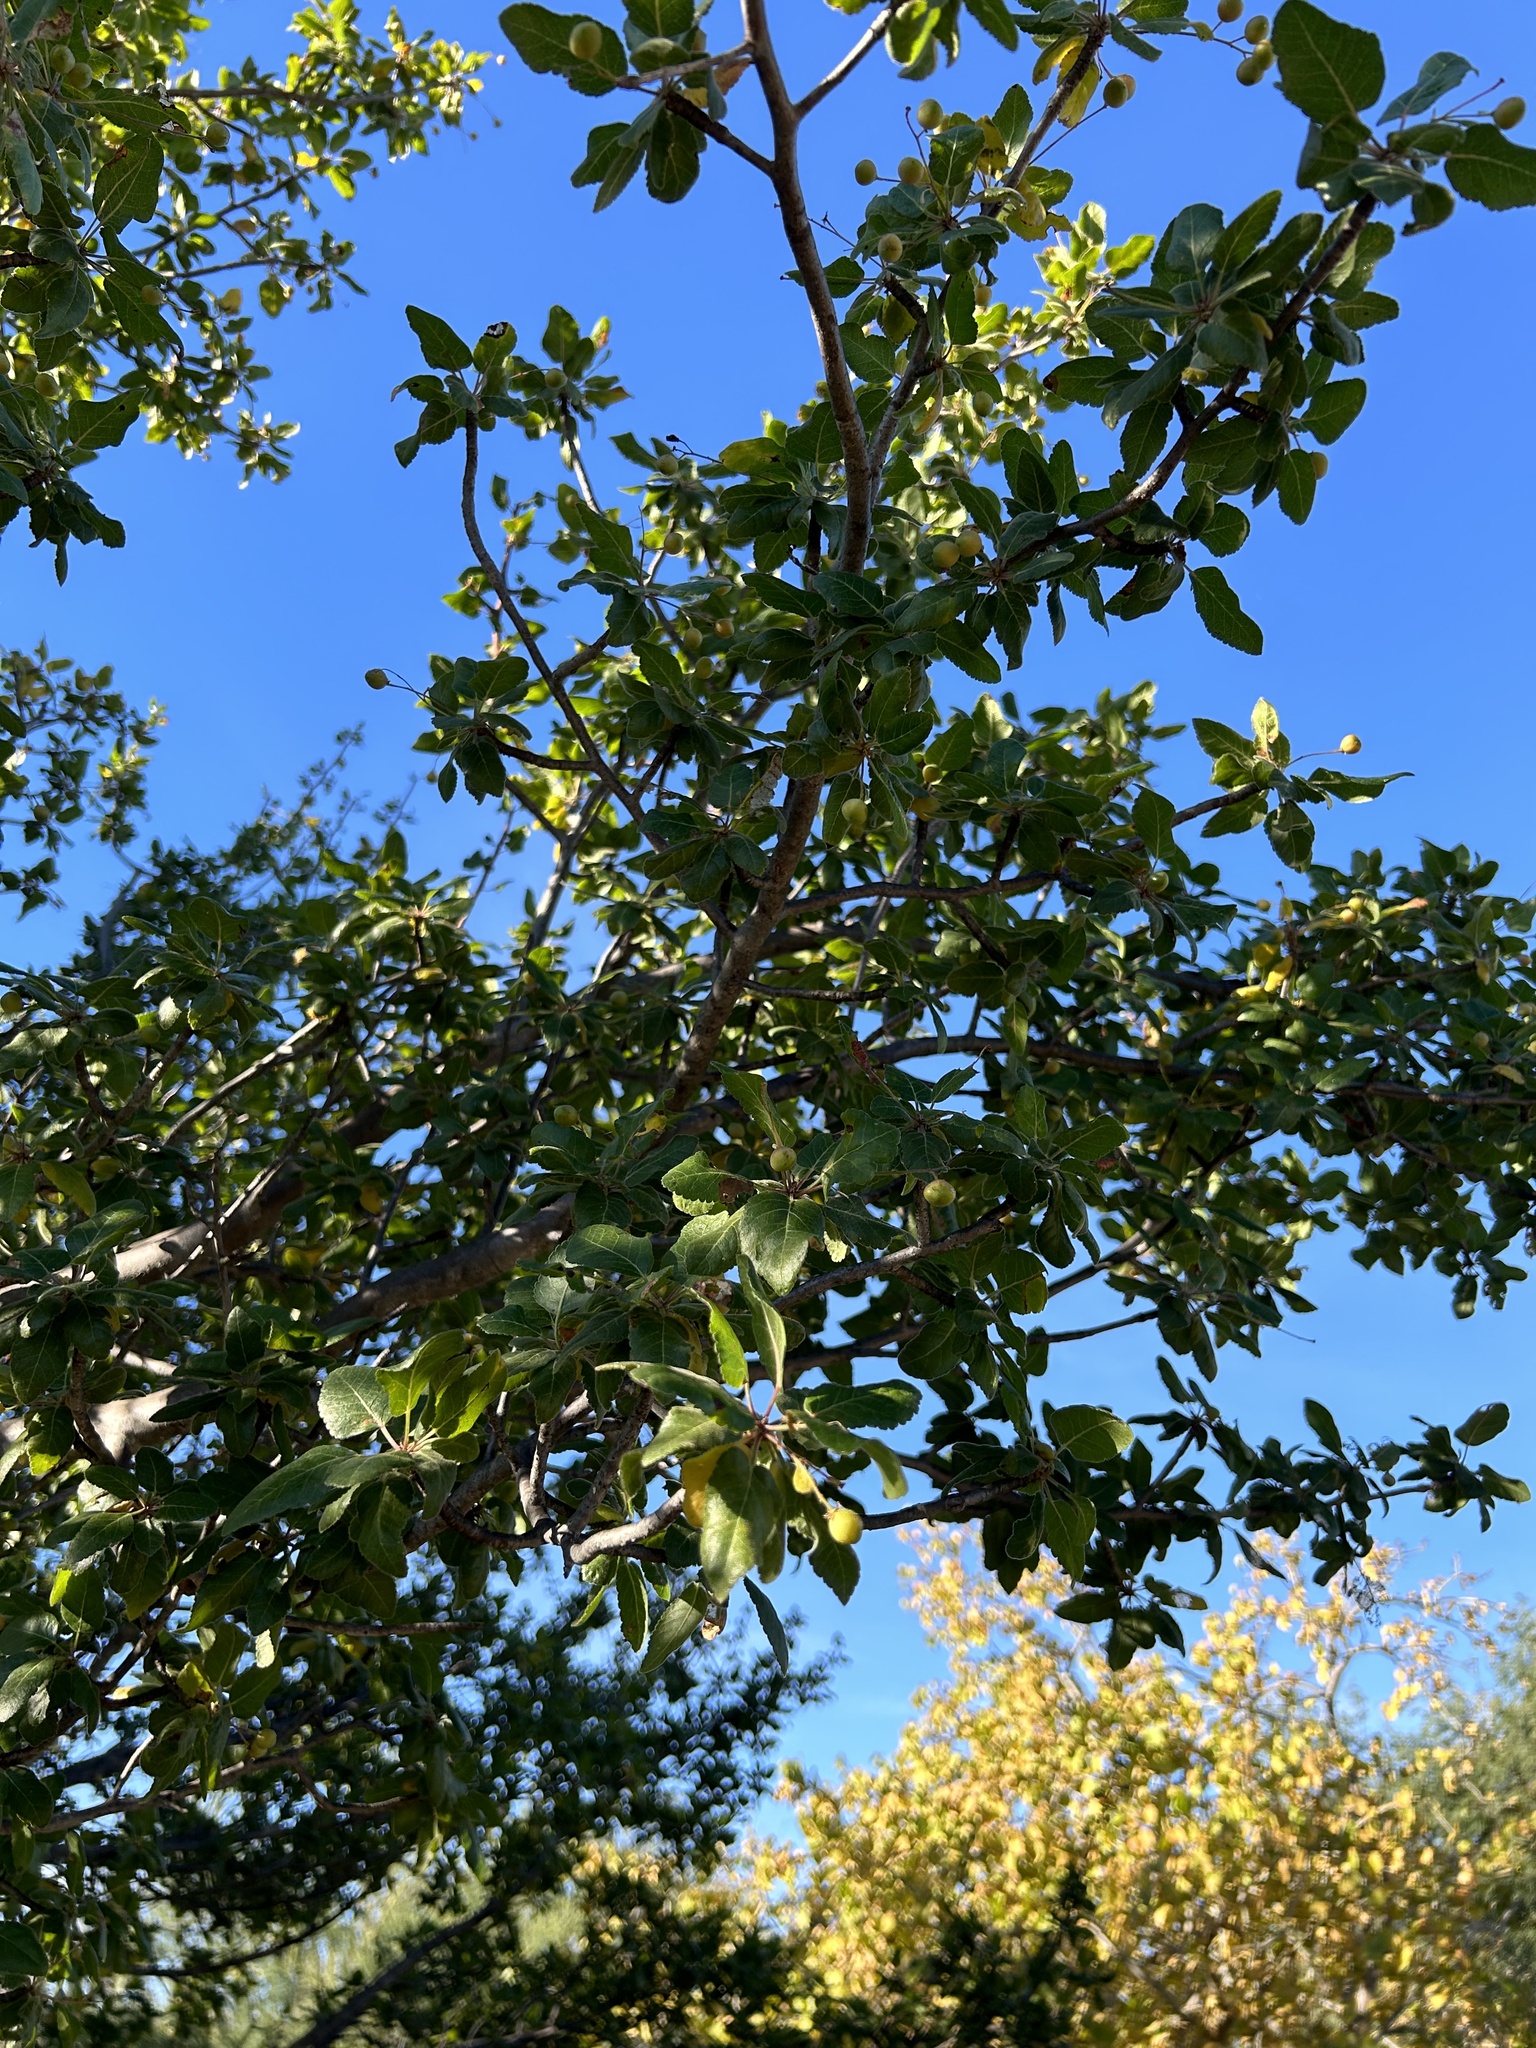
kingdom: Plantae
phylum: Tracheophyta
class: Magnoliopsida
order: Sapindales
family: Burseraceae
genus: Bursera
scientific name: Bursera epinnata
